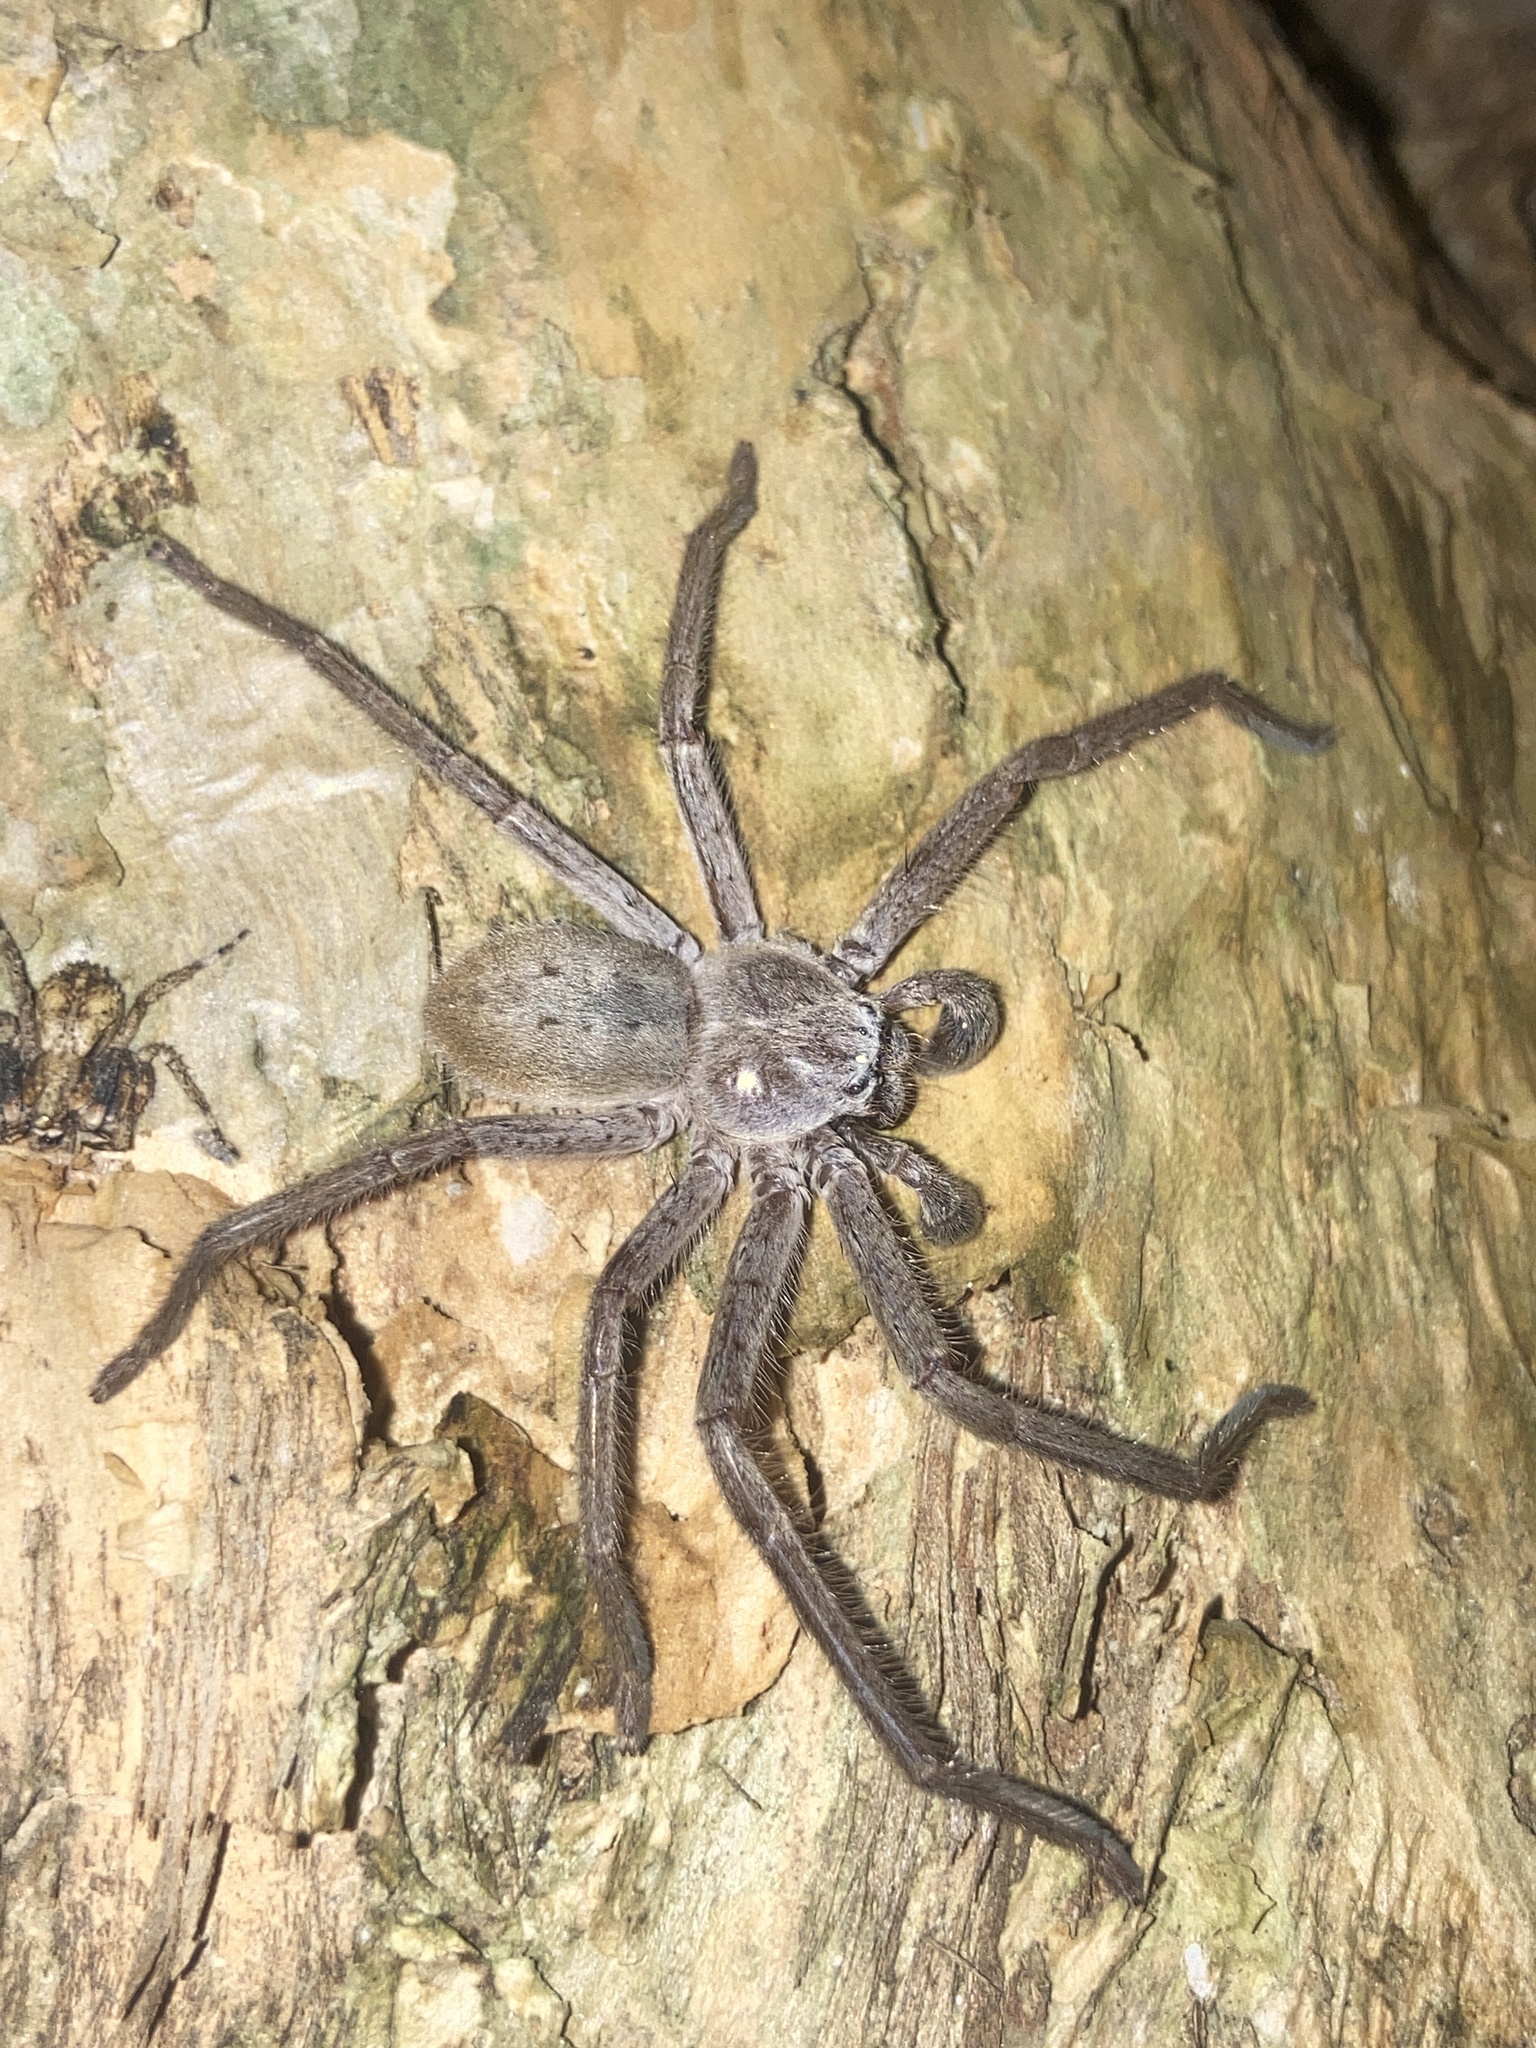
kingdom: Animalia
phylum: Arthropoda
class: Arachnida
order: Araneae
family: Sparassidae
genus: Isopeda
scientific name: Isopeda villosa
